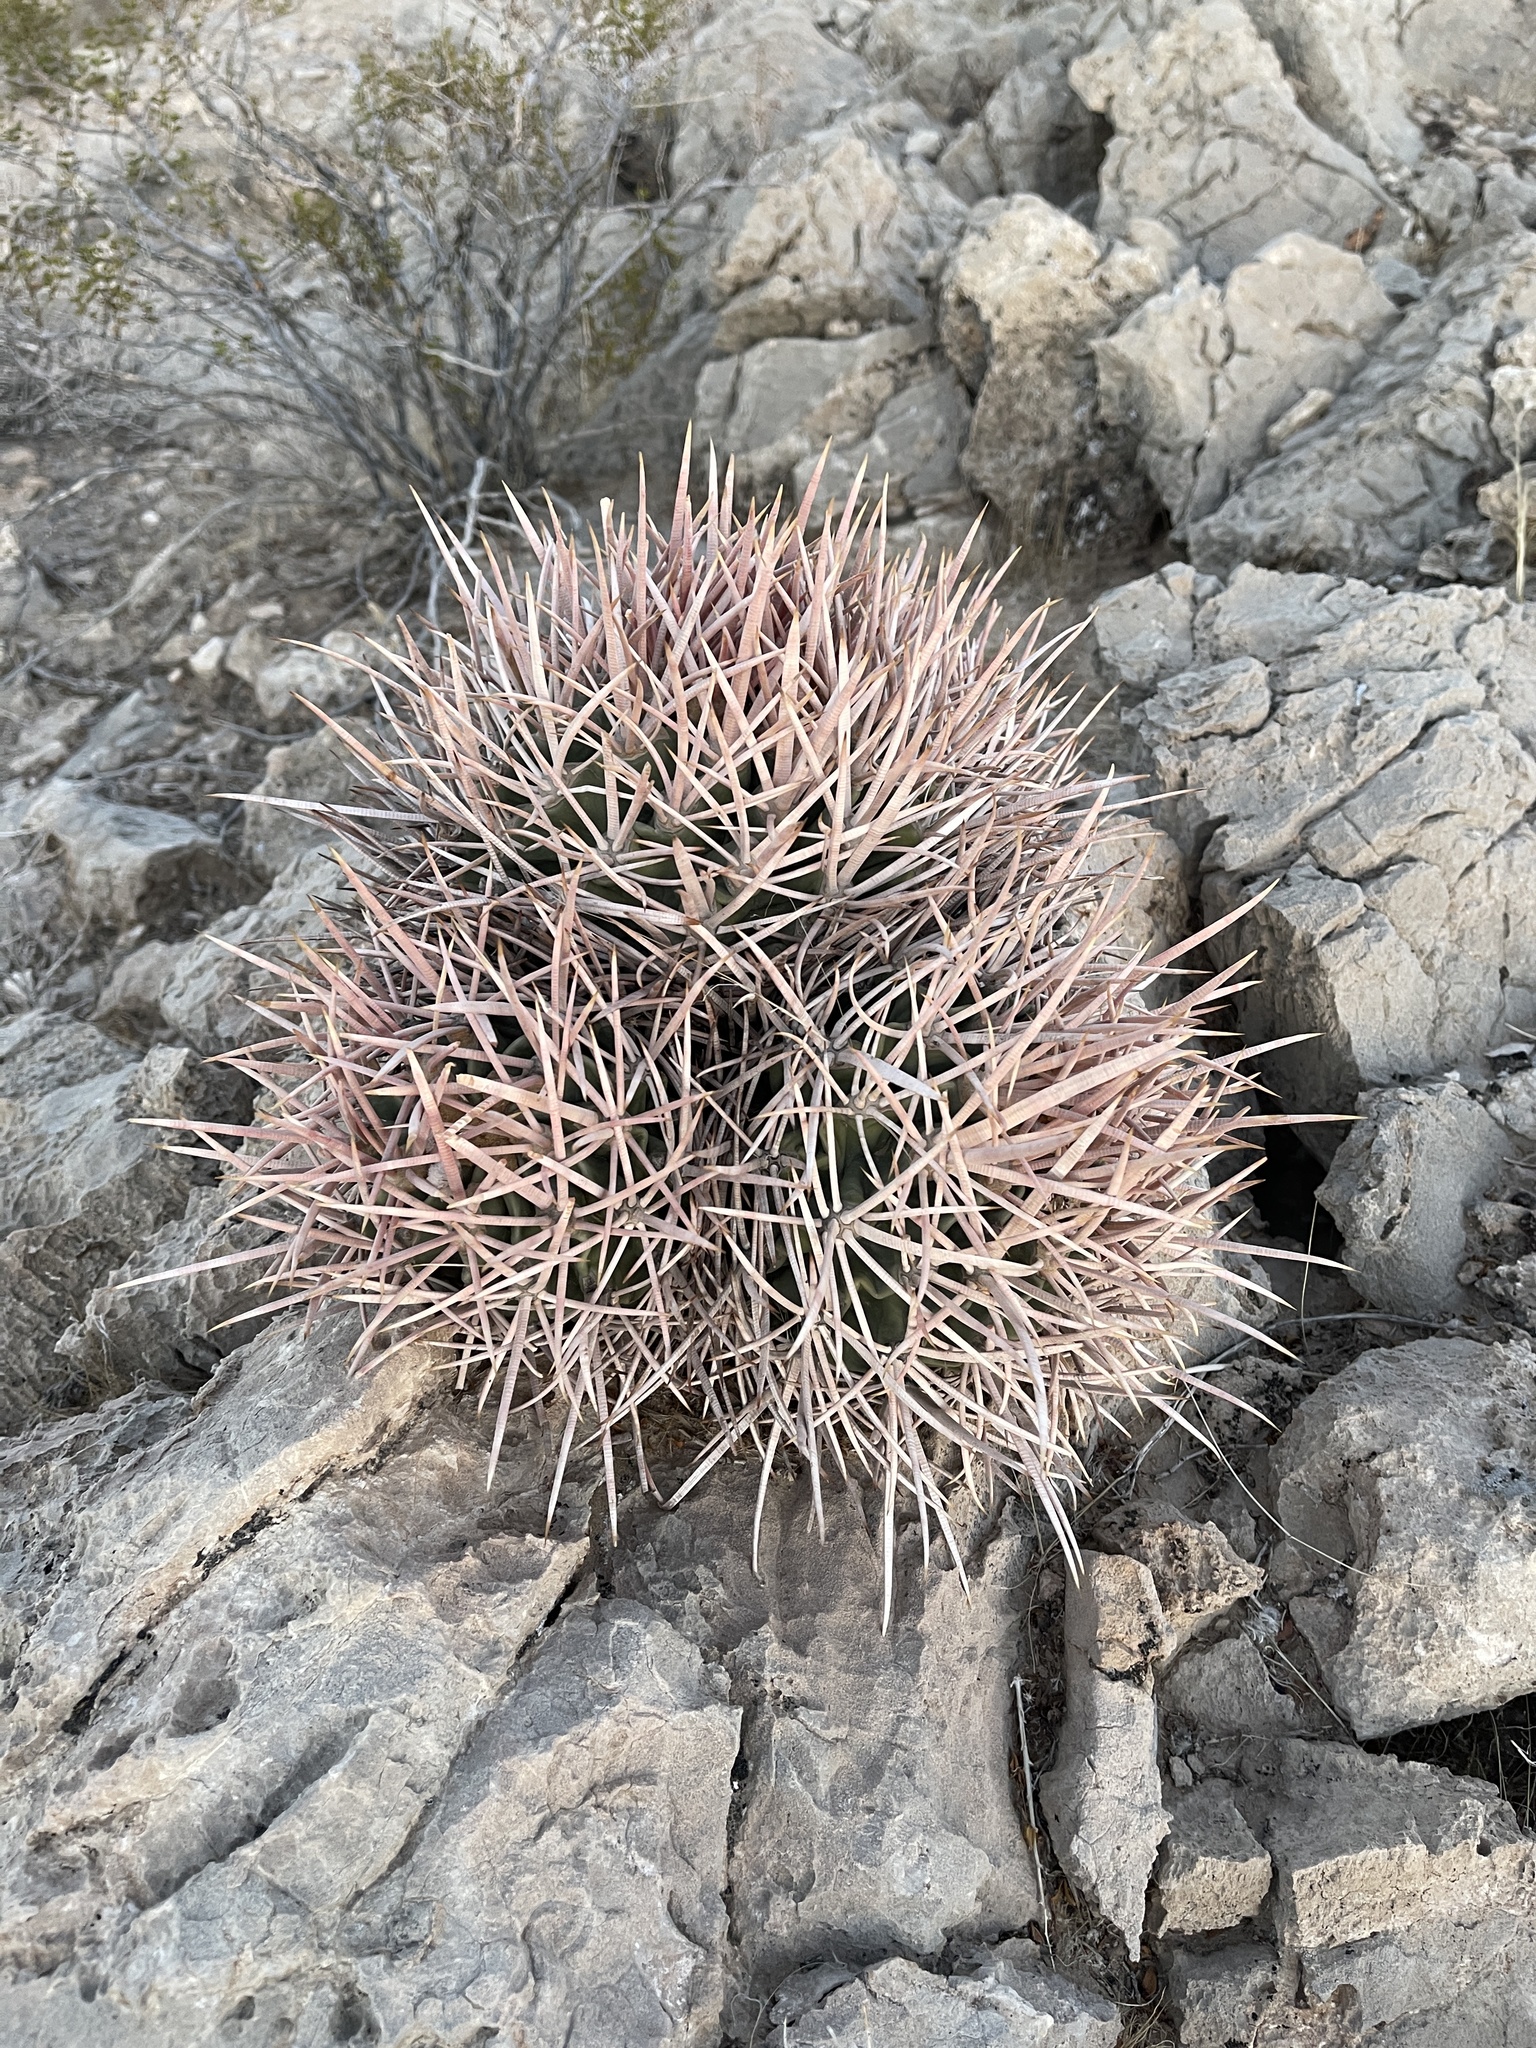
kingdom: Plantae
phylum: Tracheophyta
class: Magnoliopsida
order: Caryophyllales
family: Cactaceae
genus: Echinocactus
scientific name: Echinocactus polycephalus
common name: Cottontop cactus
